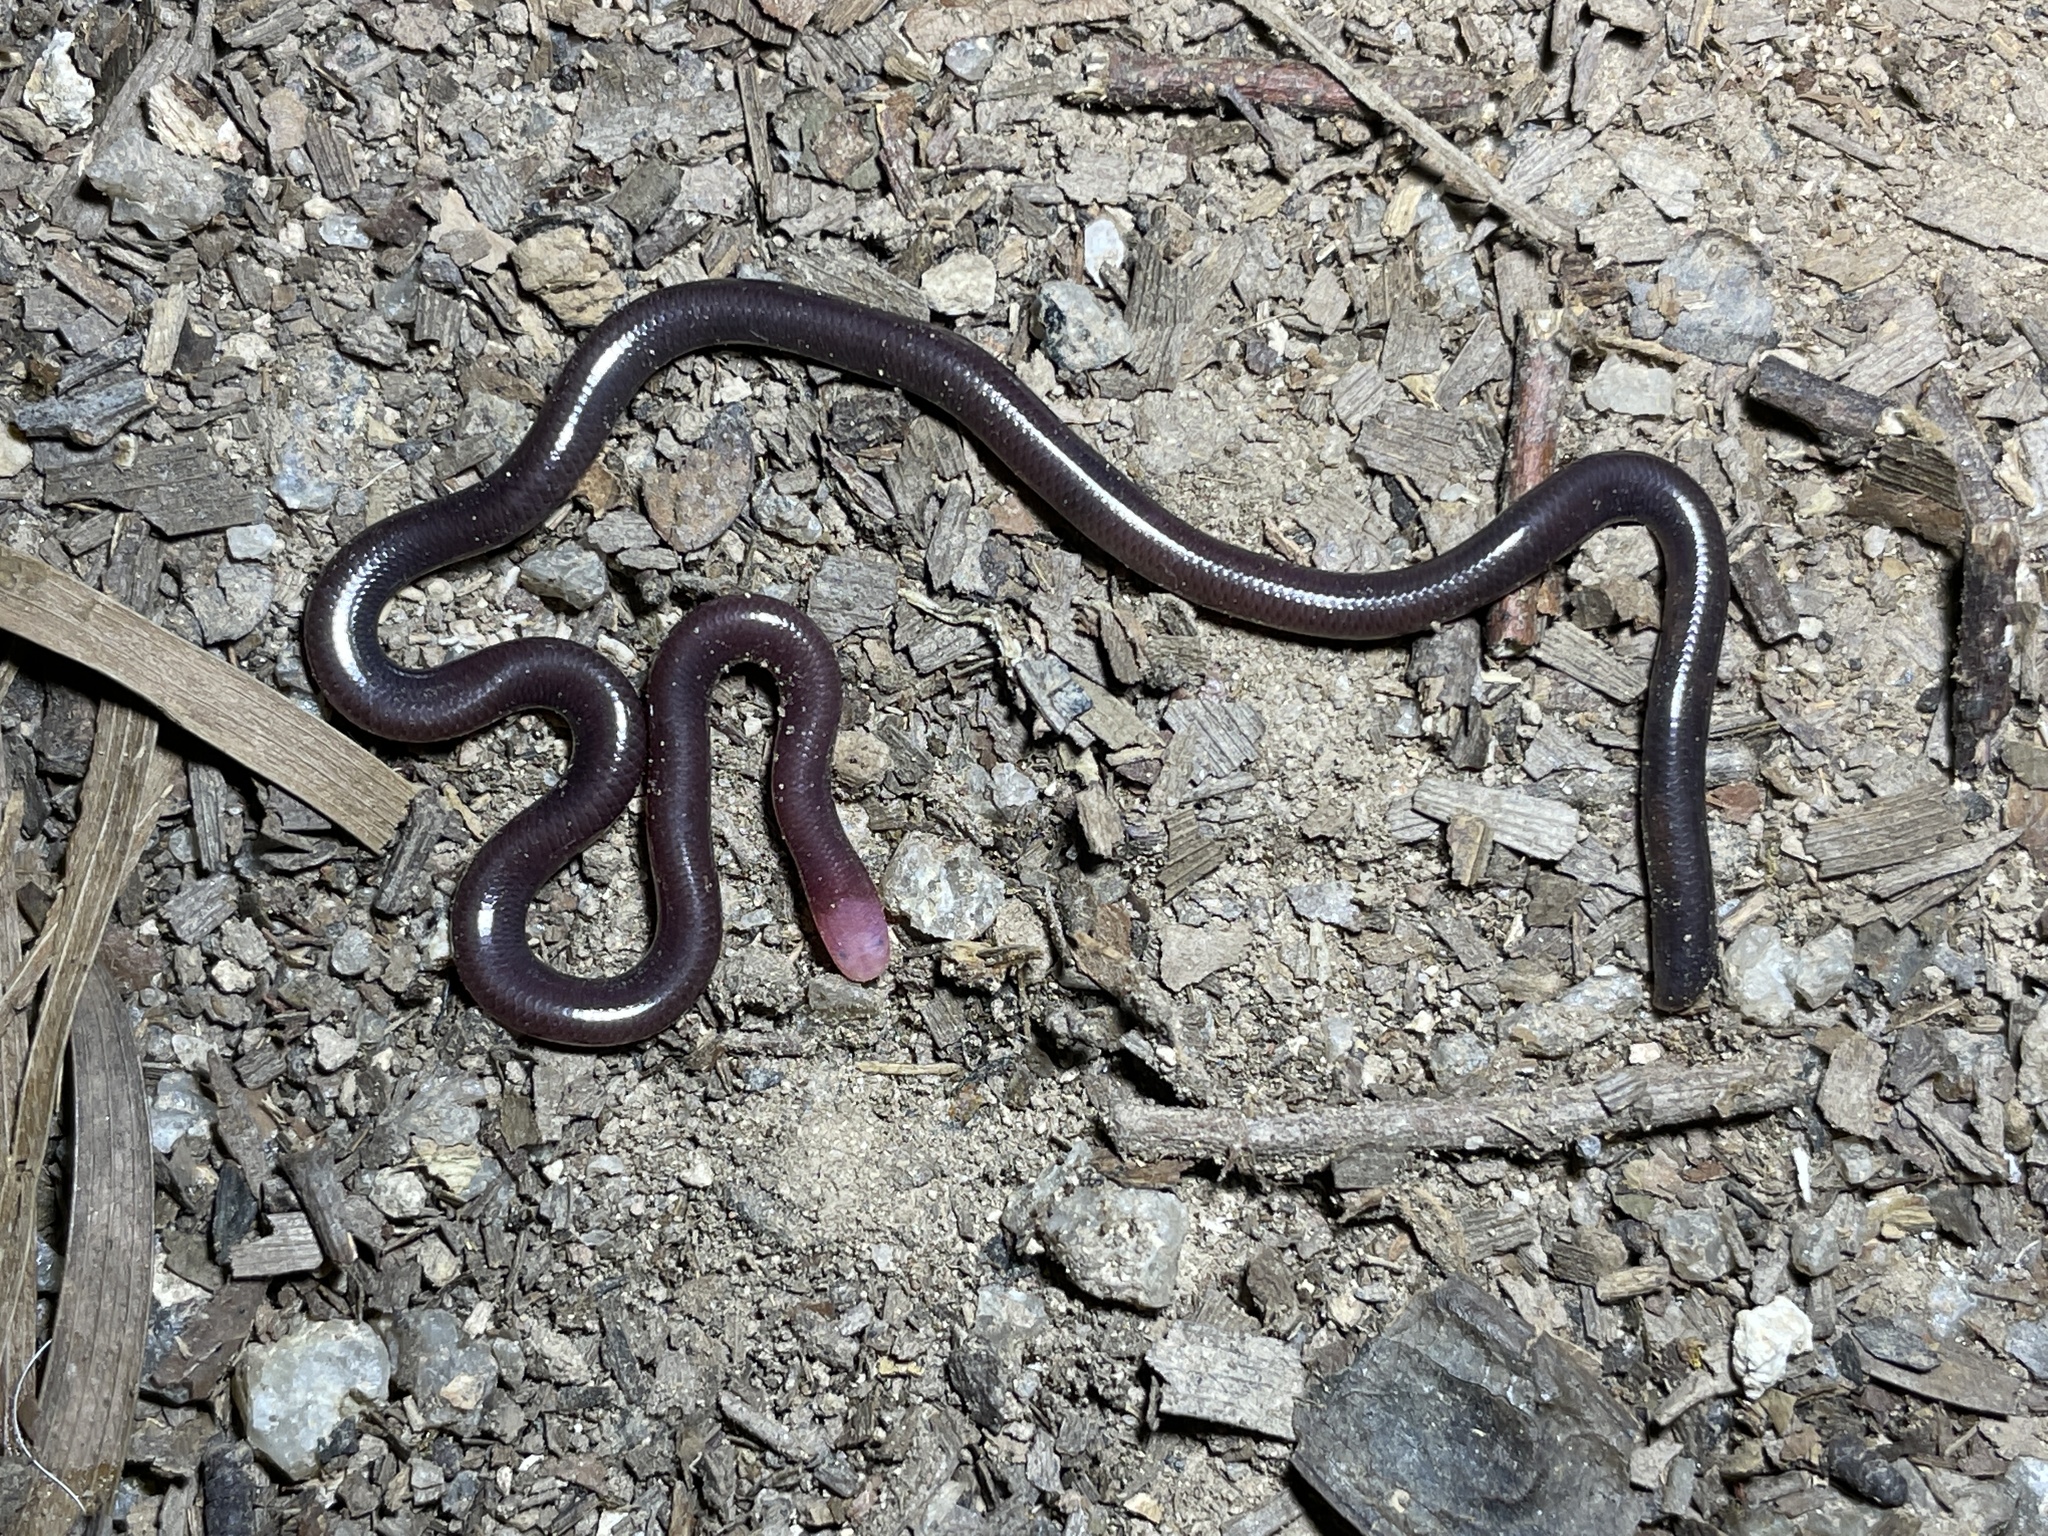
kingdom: Animalia
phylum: Chordata
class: Squamata
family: Typhlopidae
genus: Indotyphlops
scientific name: Indotyphlops albiceps
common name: White-headed blind snake
